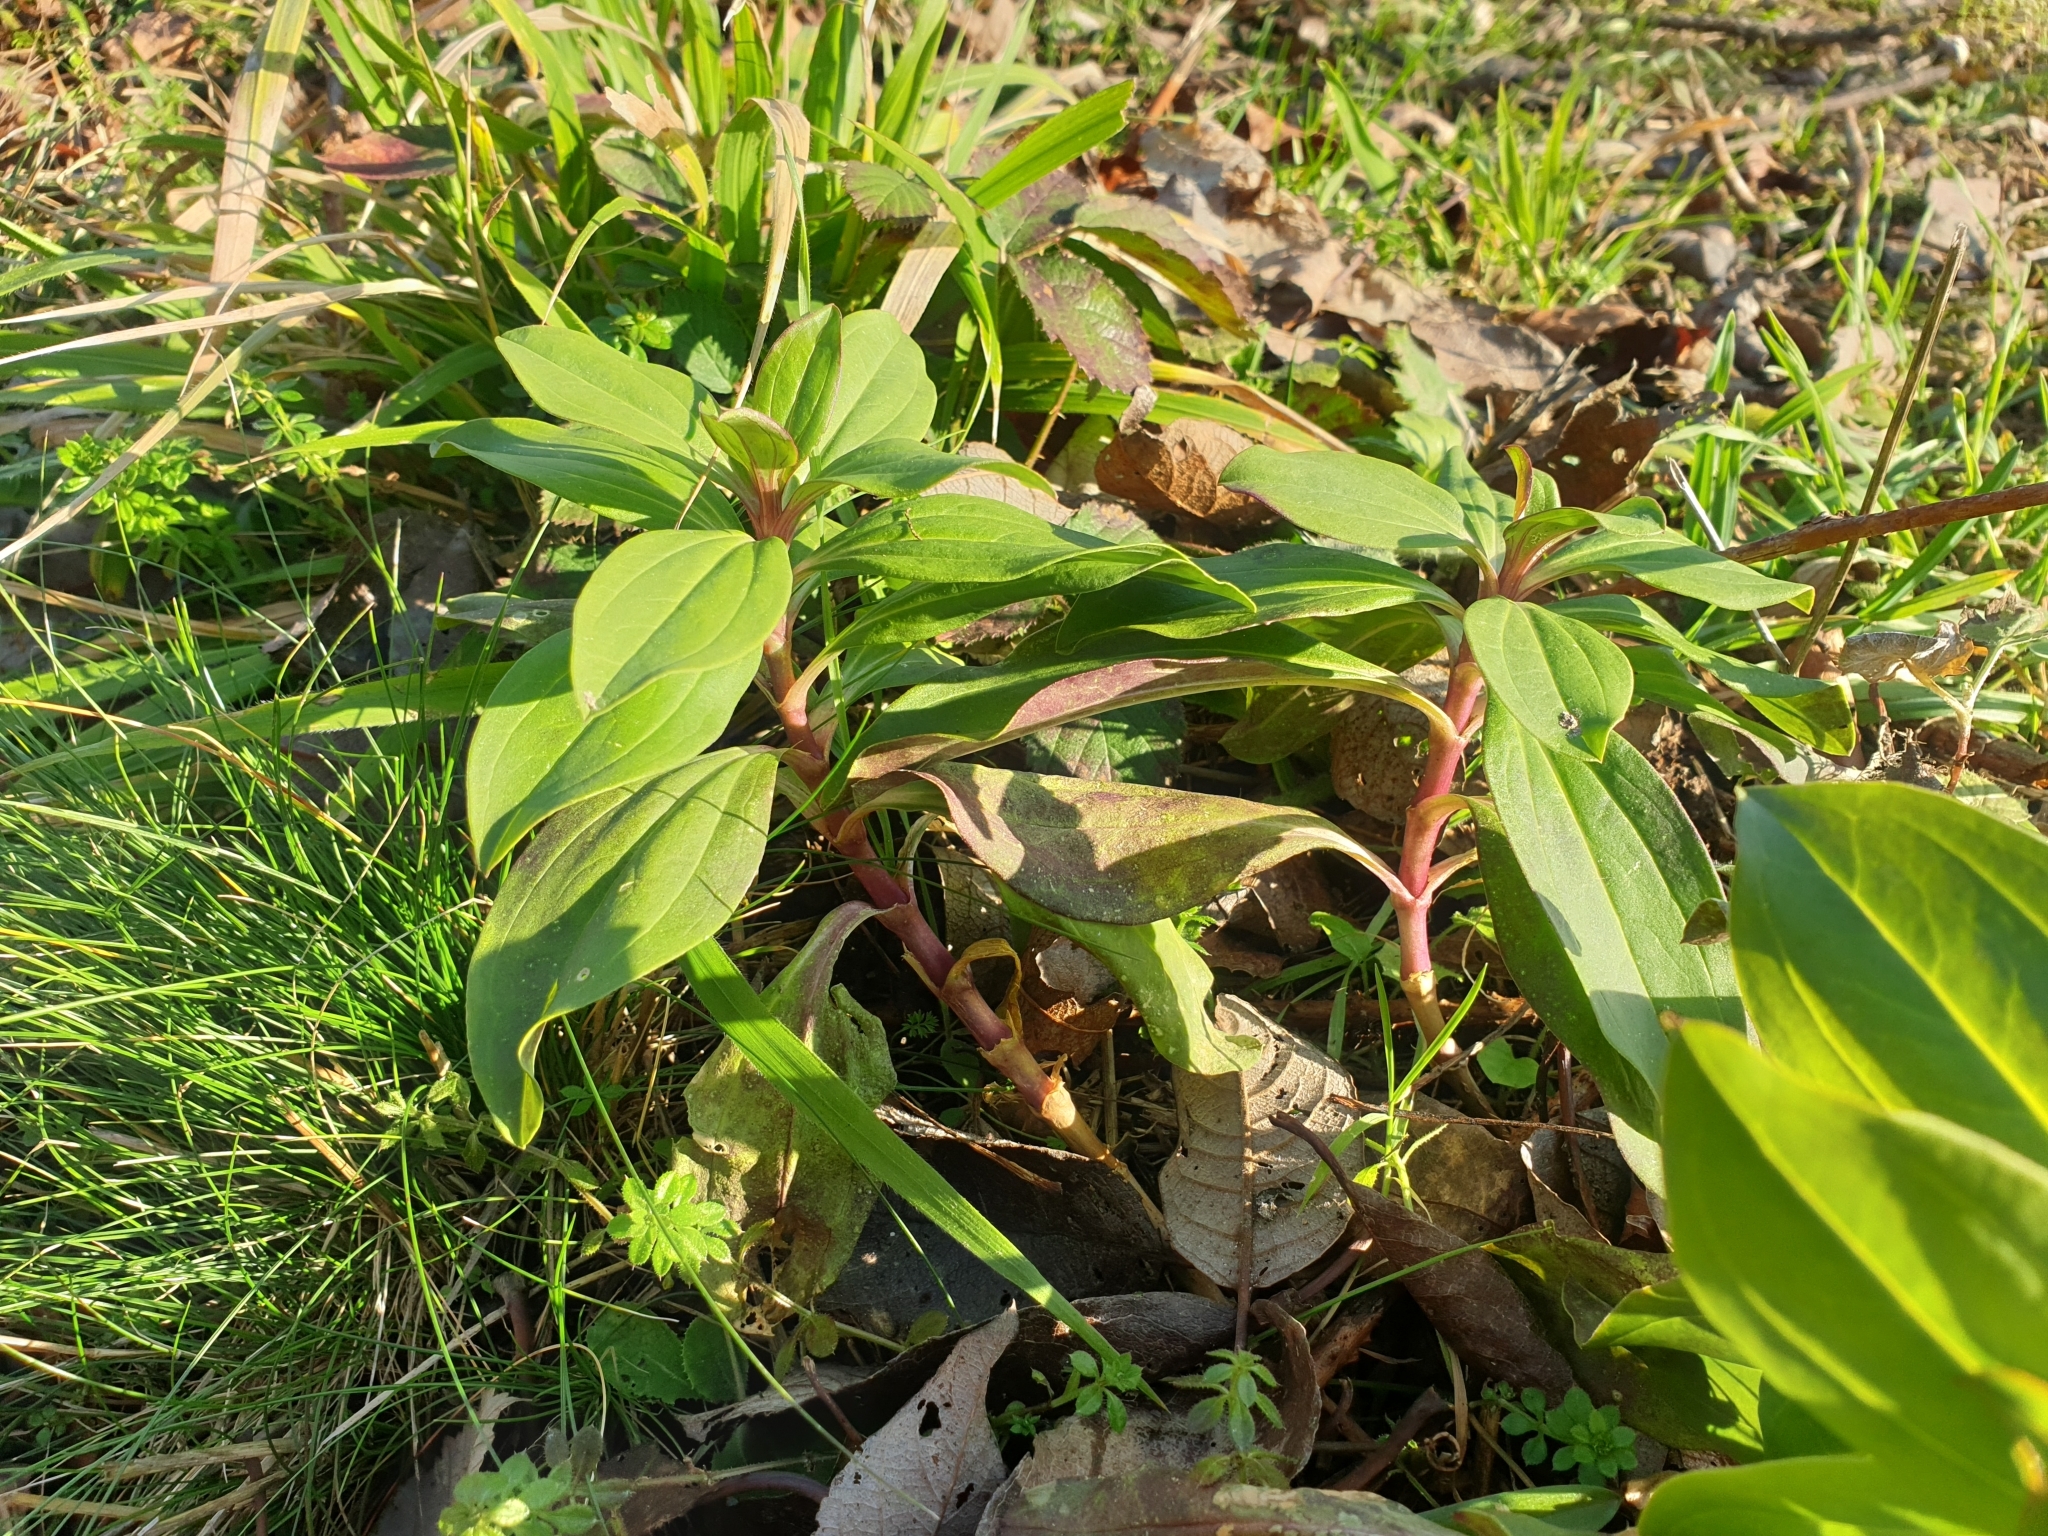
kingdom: Plantae
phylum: Tracheophyta
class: Magnoliopsida
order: Caryophyllales
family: Caryophyllaceae
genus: Saponaria
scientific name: Saponaria officinalis
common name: Soapwort
